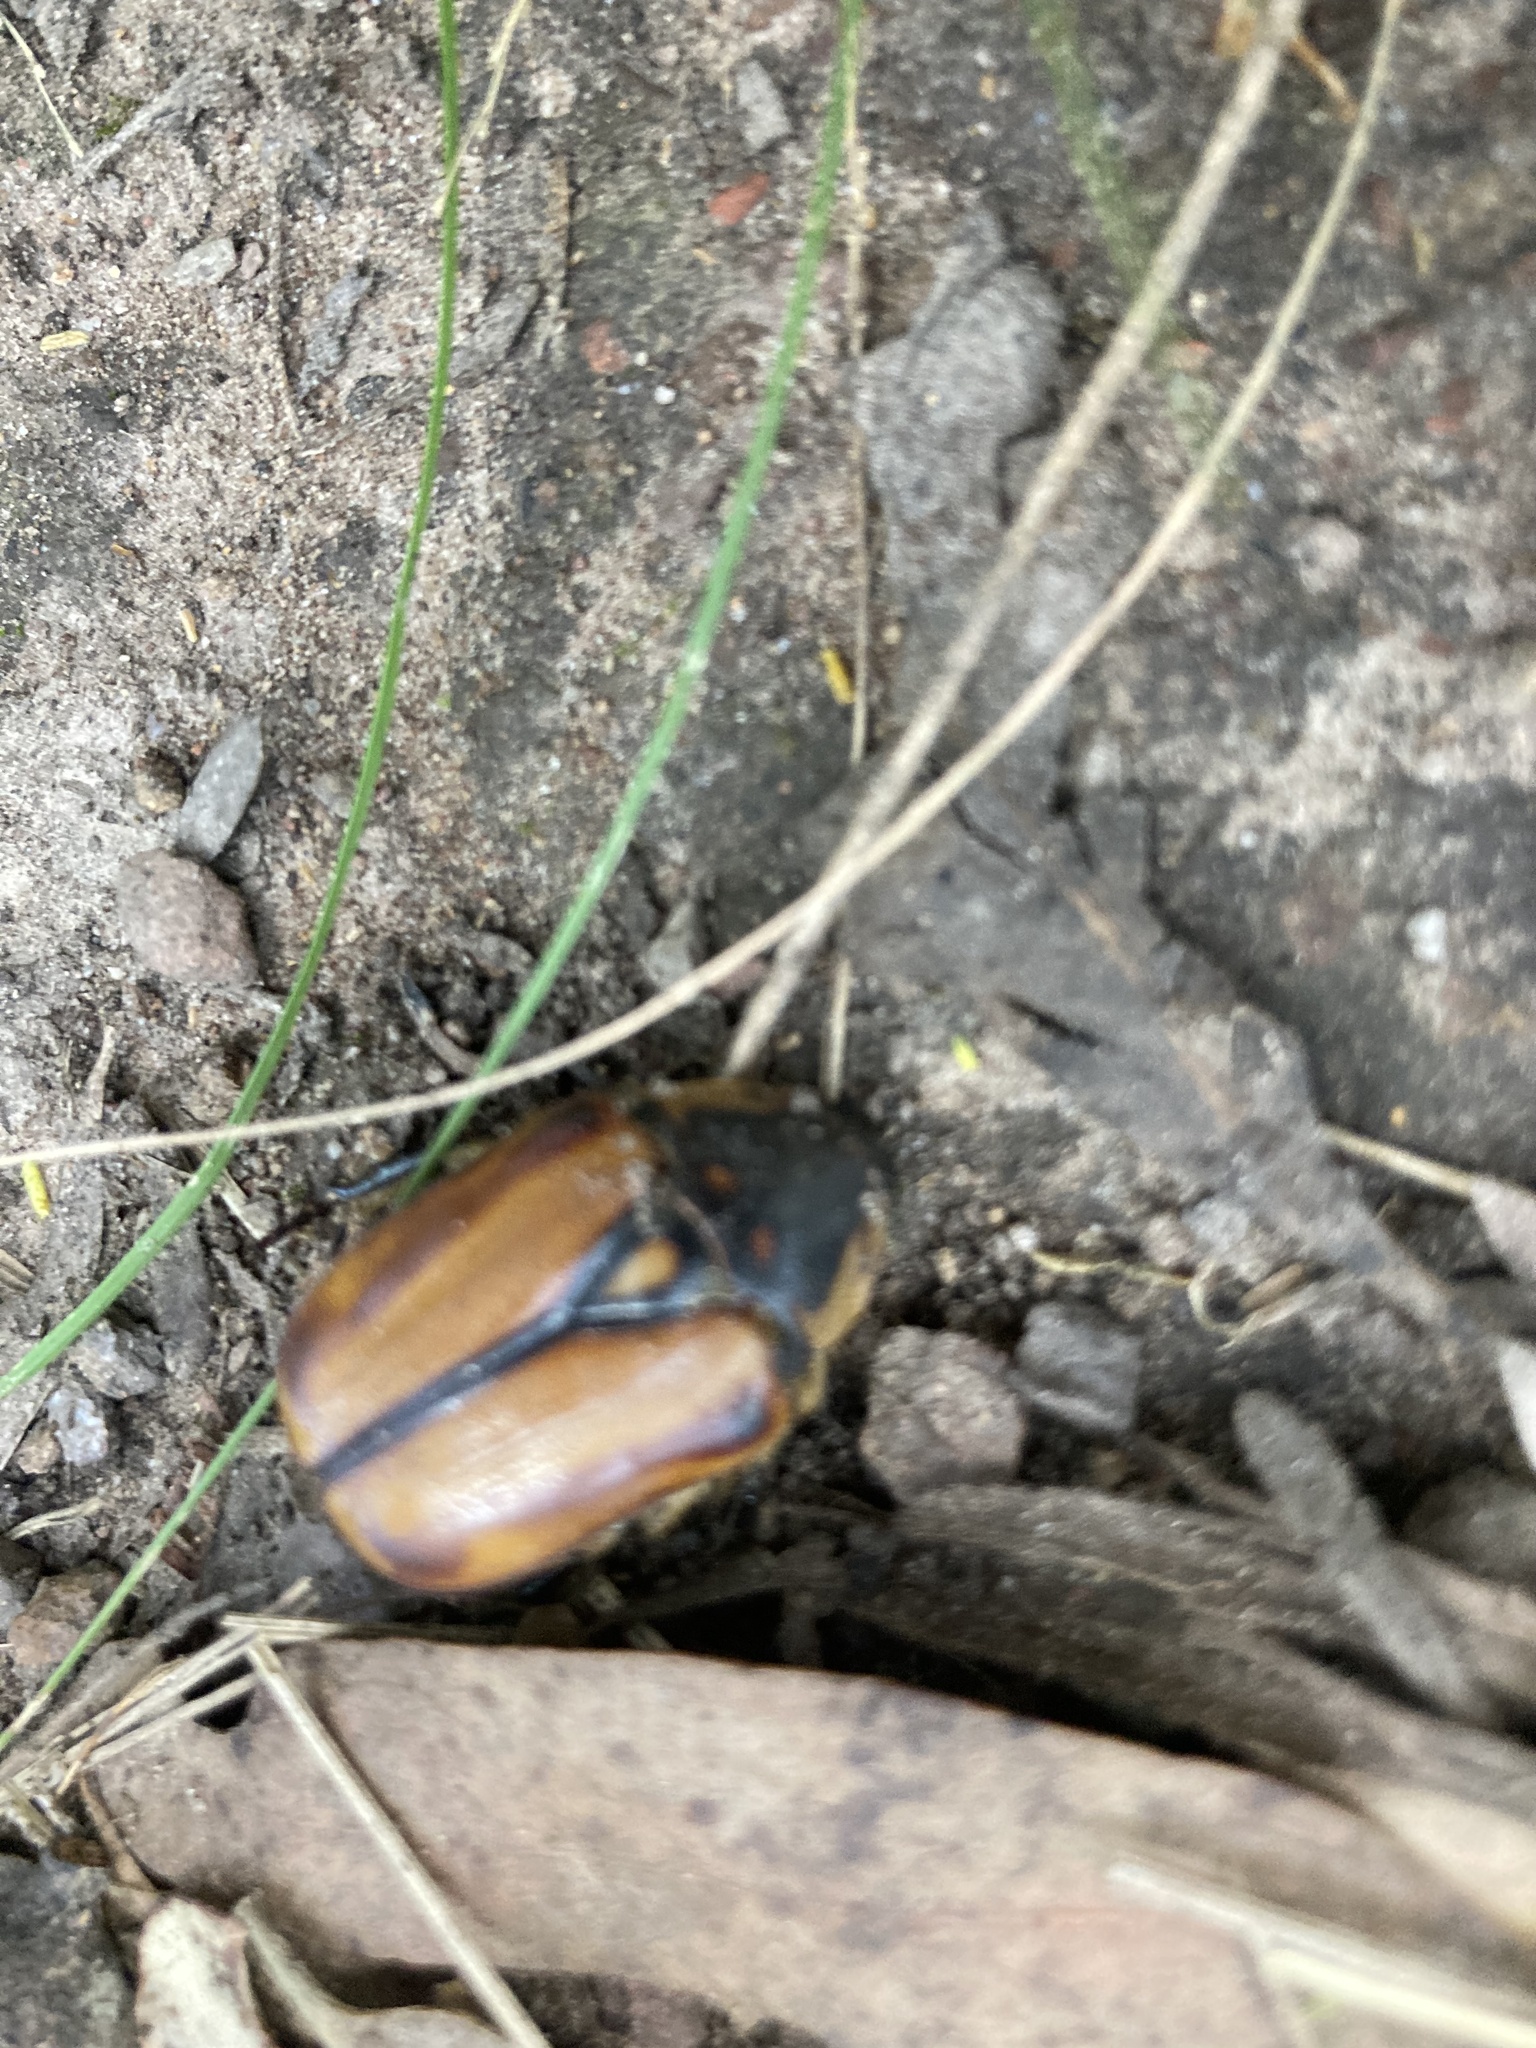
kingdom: Animalia
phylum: Arthropoda
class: Insecta
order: Coleoptera
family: Scarabaeidae
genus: Chondropyga
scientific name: Chondropyga gulosa
